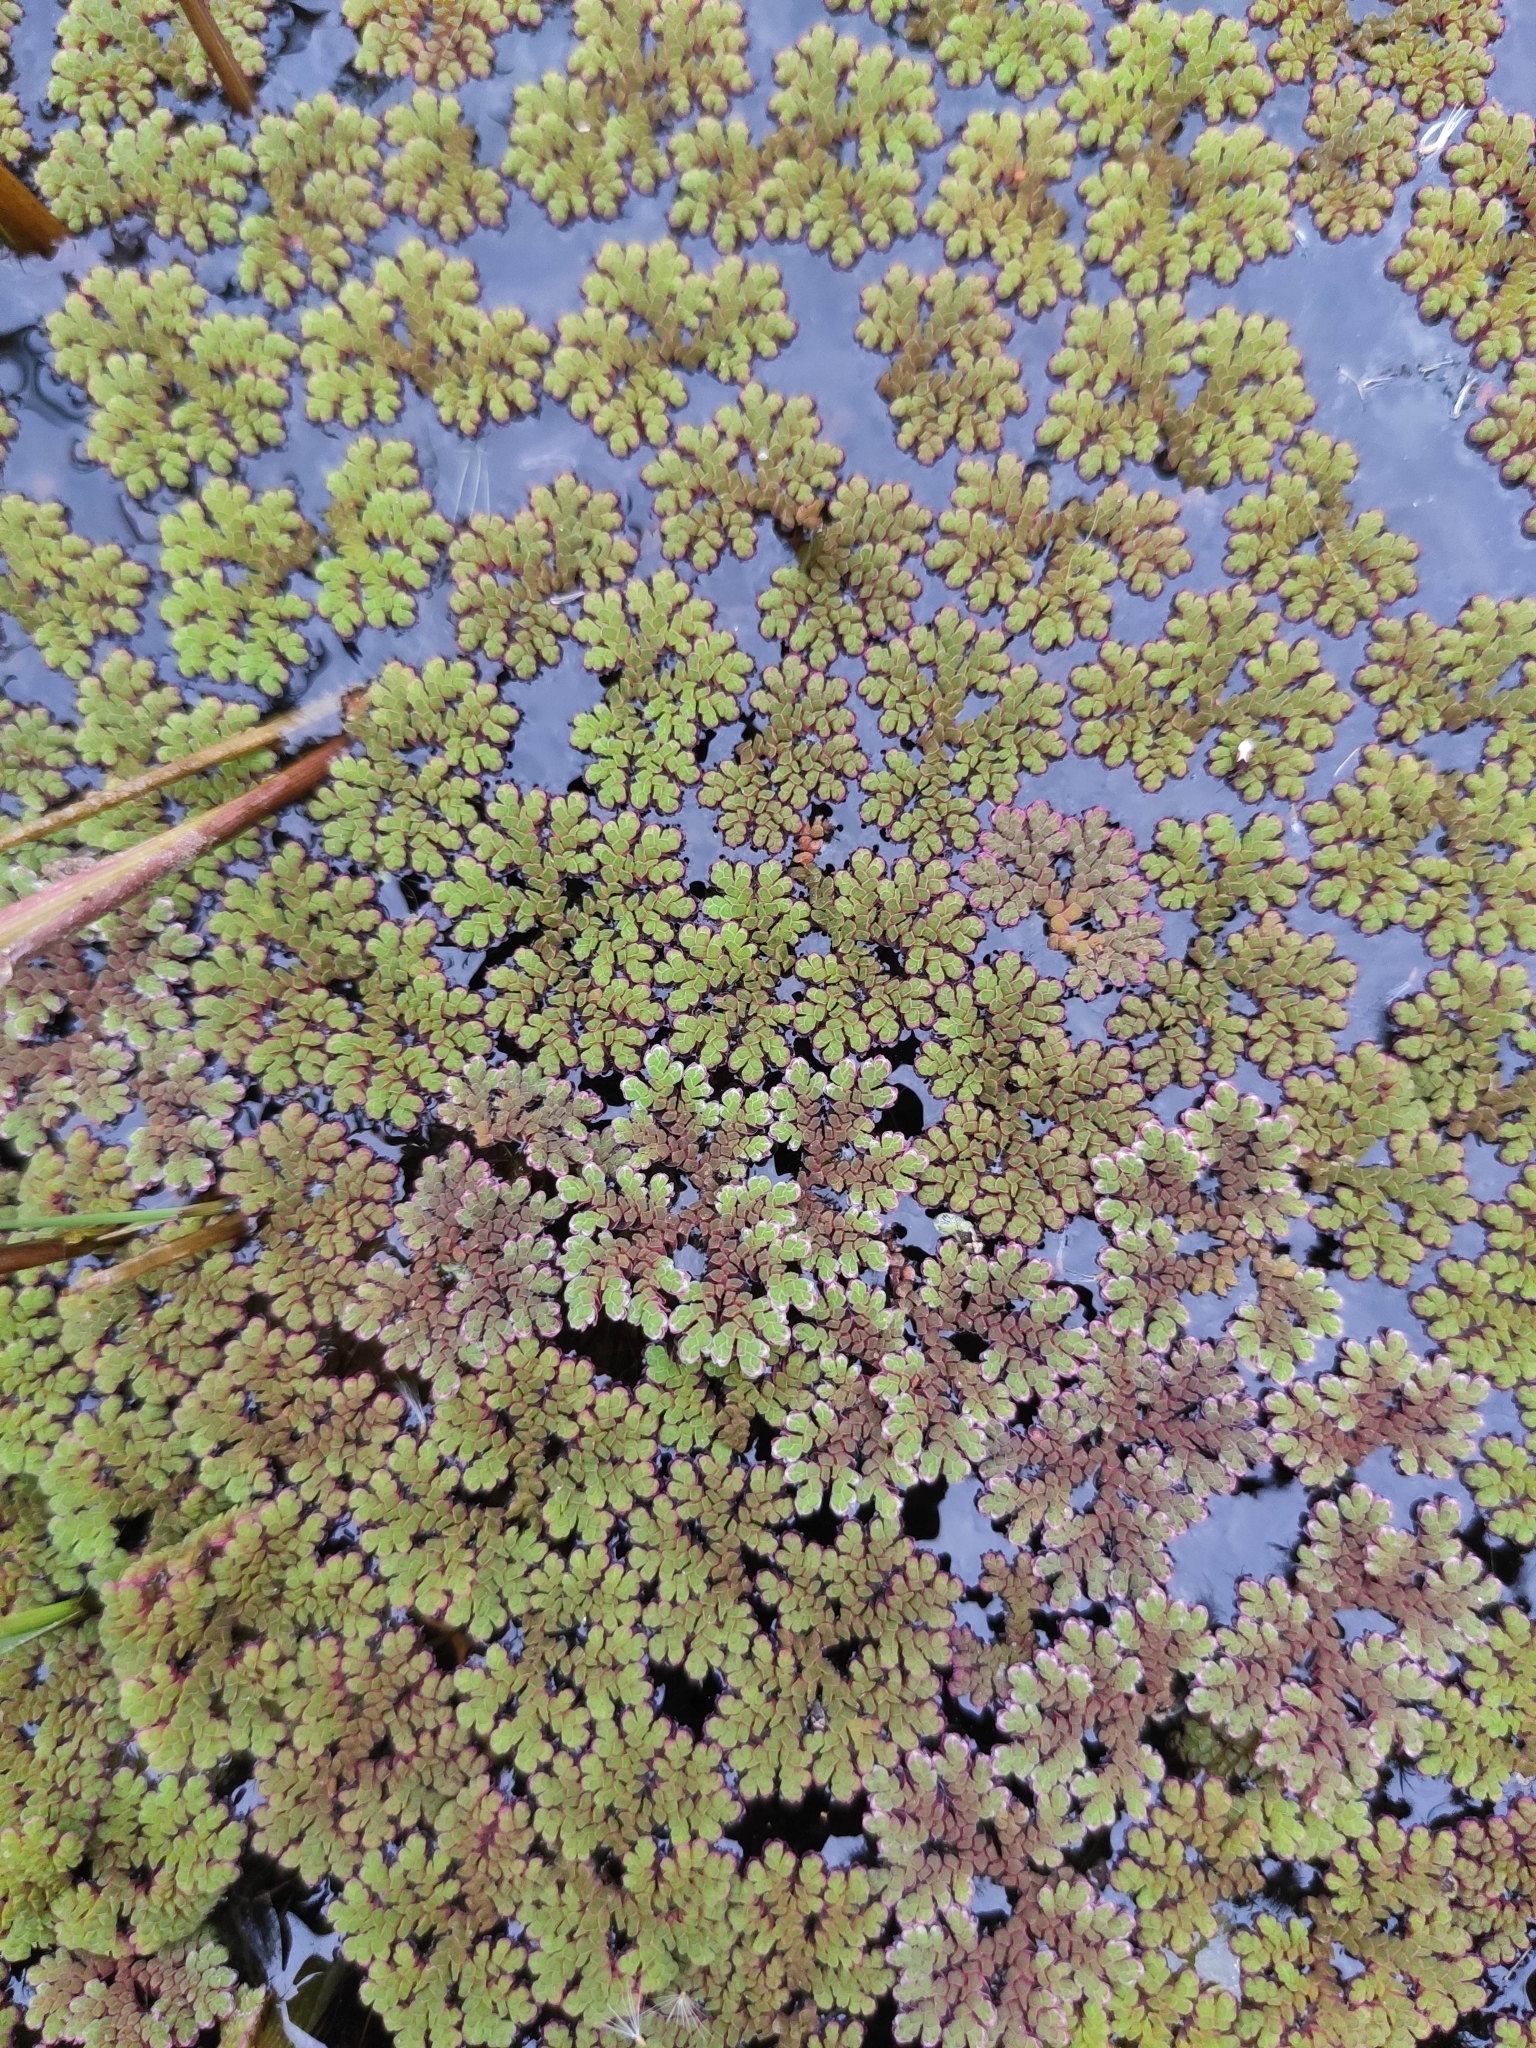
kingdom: Plantae
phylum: Tracheophyta
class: Polypodiopsida
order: Salviniales
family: Salviniaceae
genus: Azolla
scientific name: Azolla filiculoides
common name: Water fern
